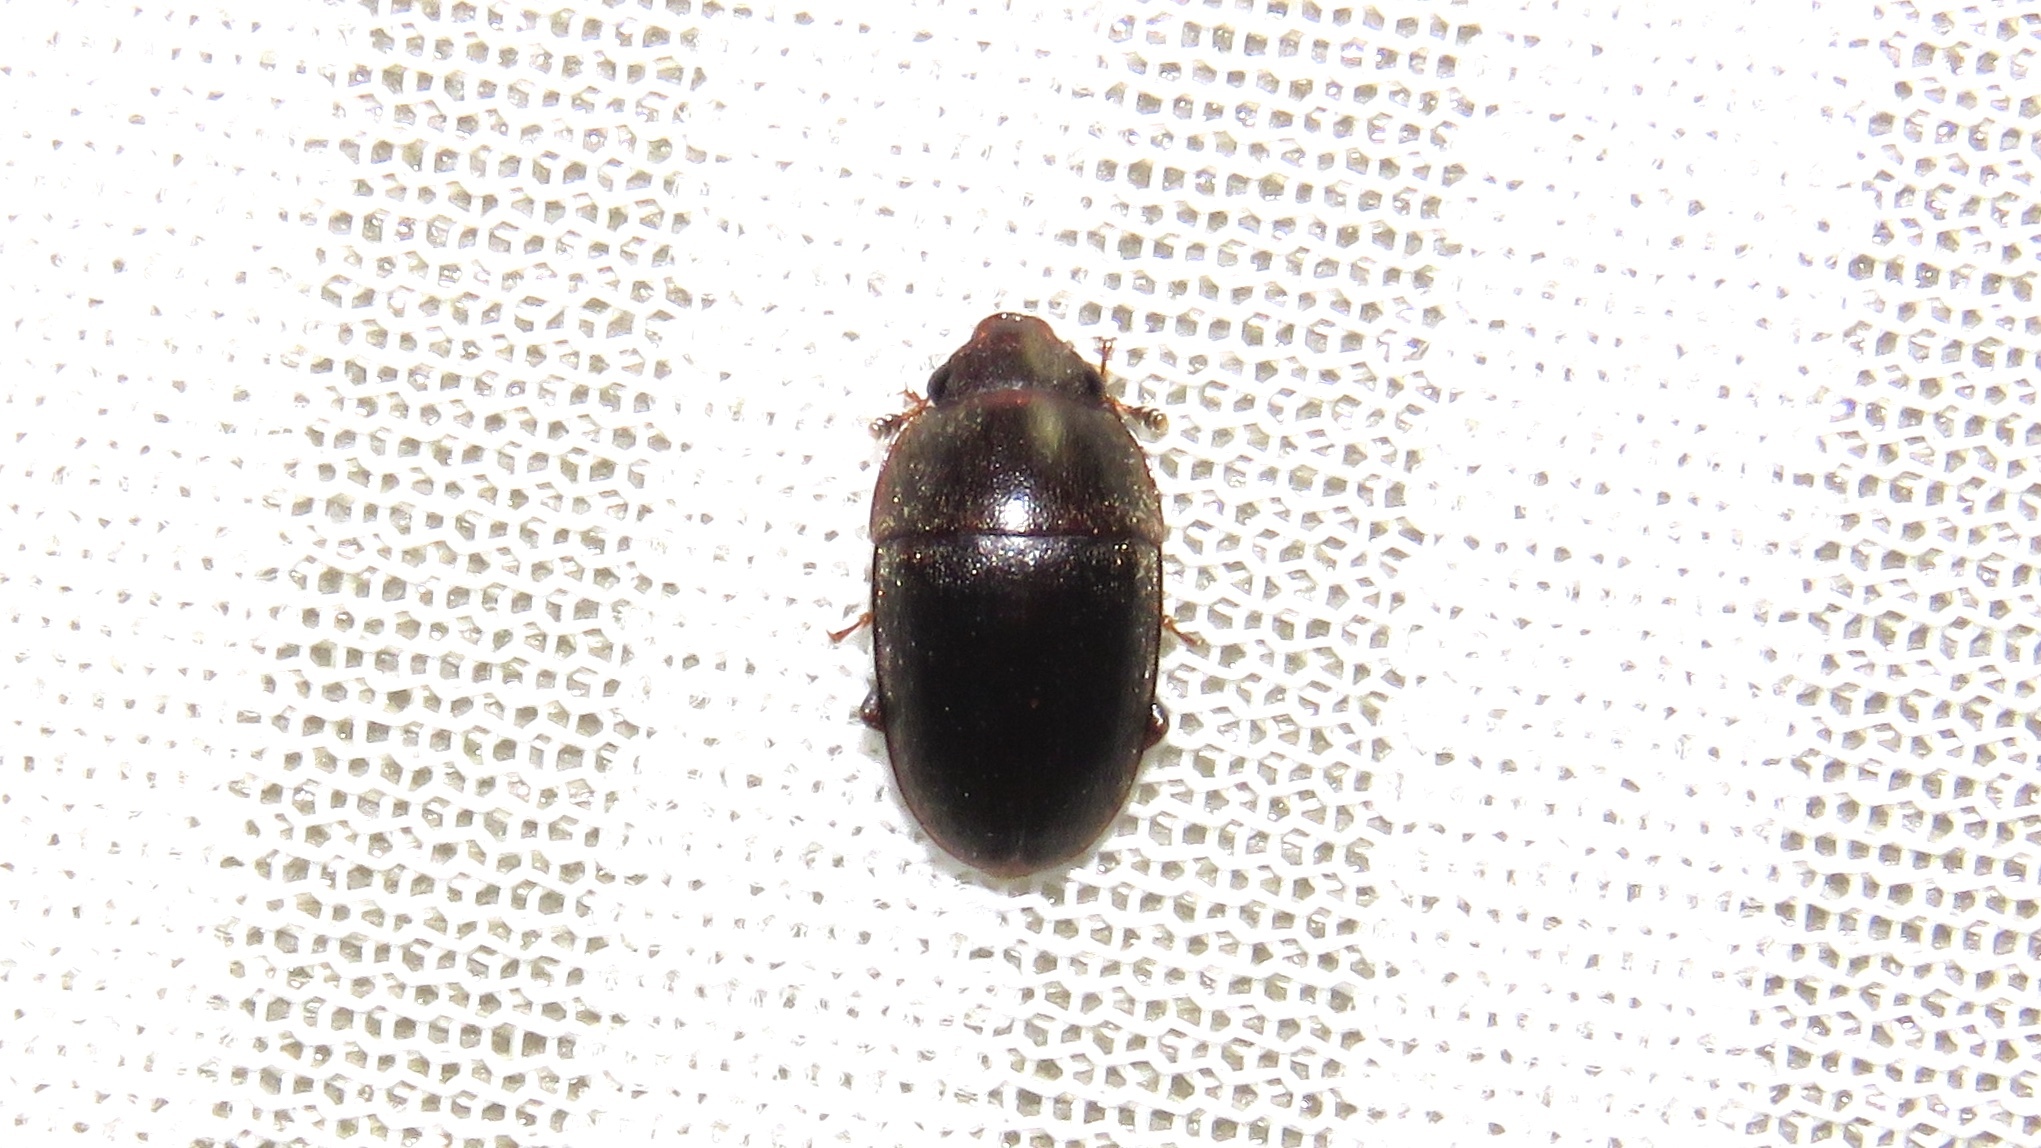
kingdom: Animalia
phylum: Arthropoda
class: Insecta
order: Coleoptera
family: Nitidulidae
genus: Cryptarcha
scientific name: Cryptarcha ampla
